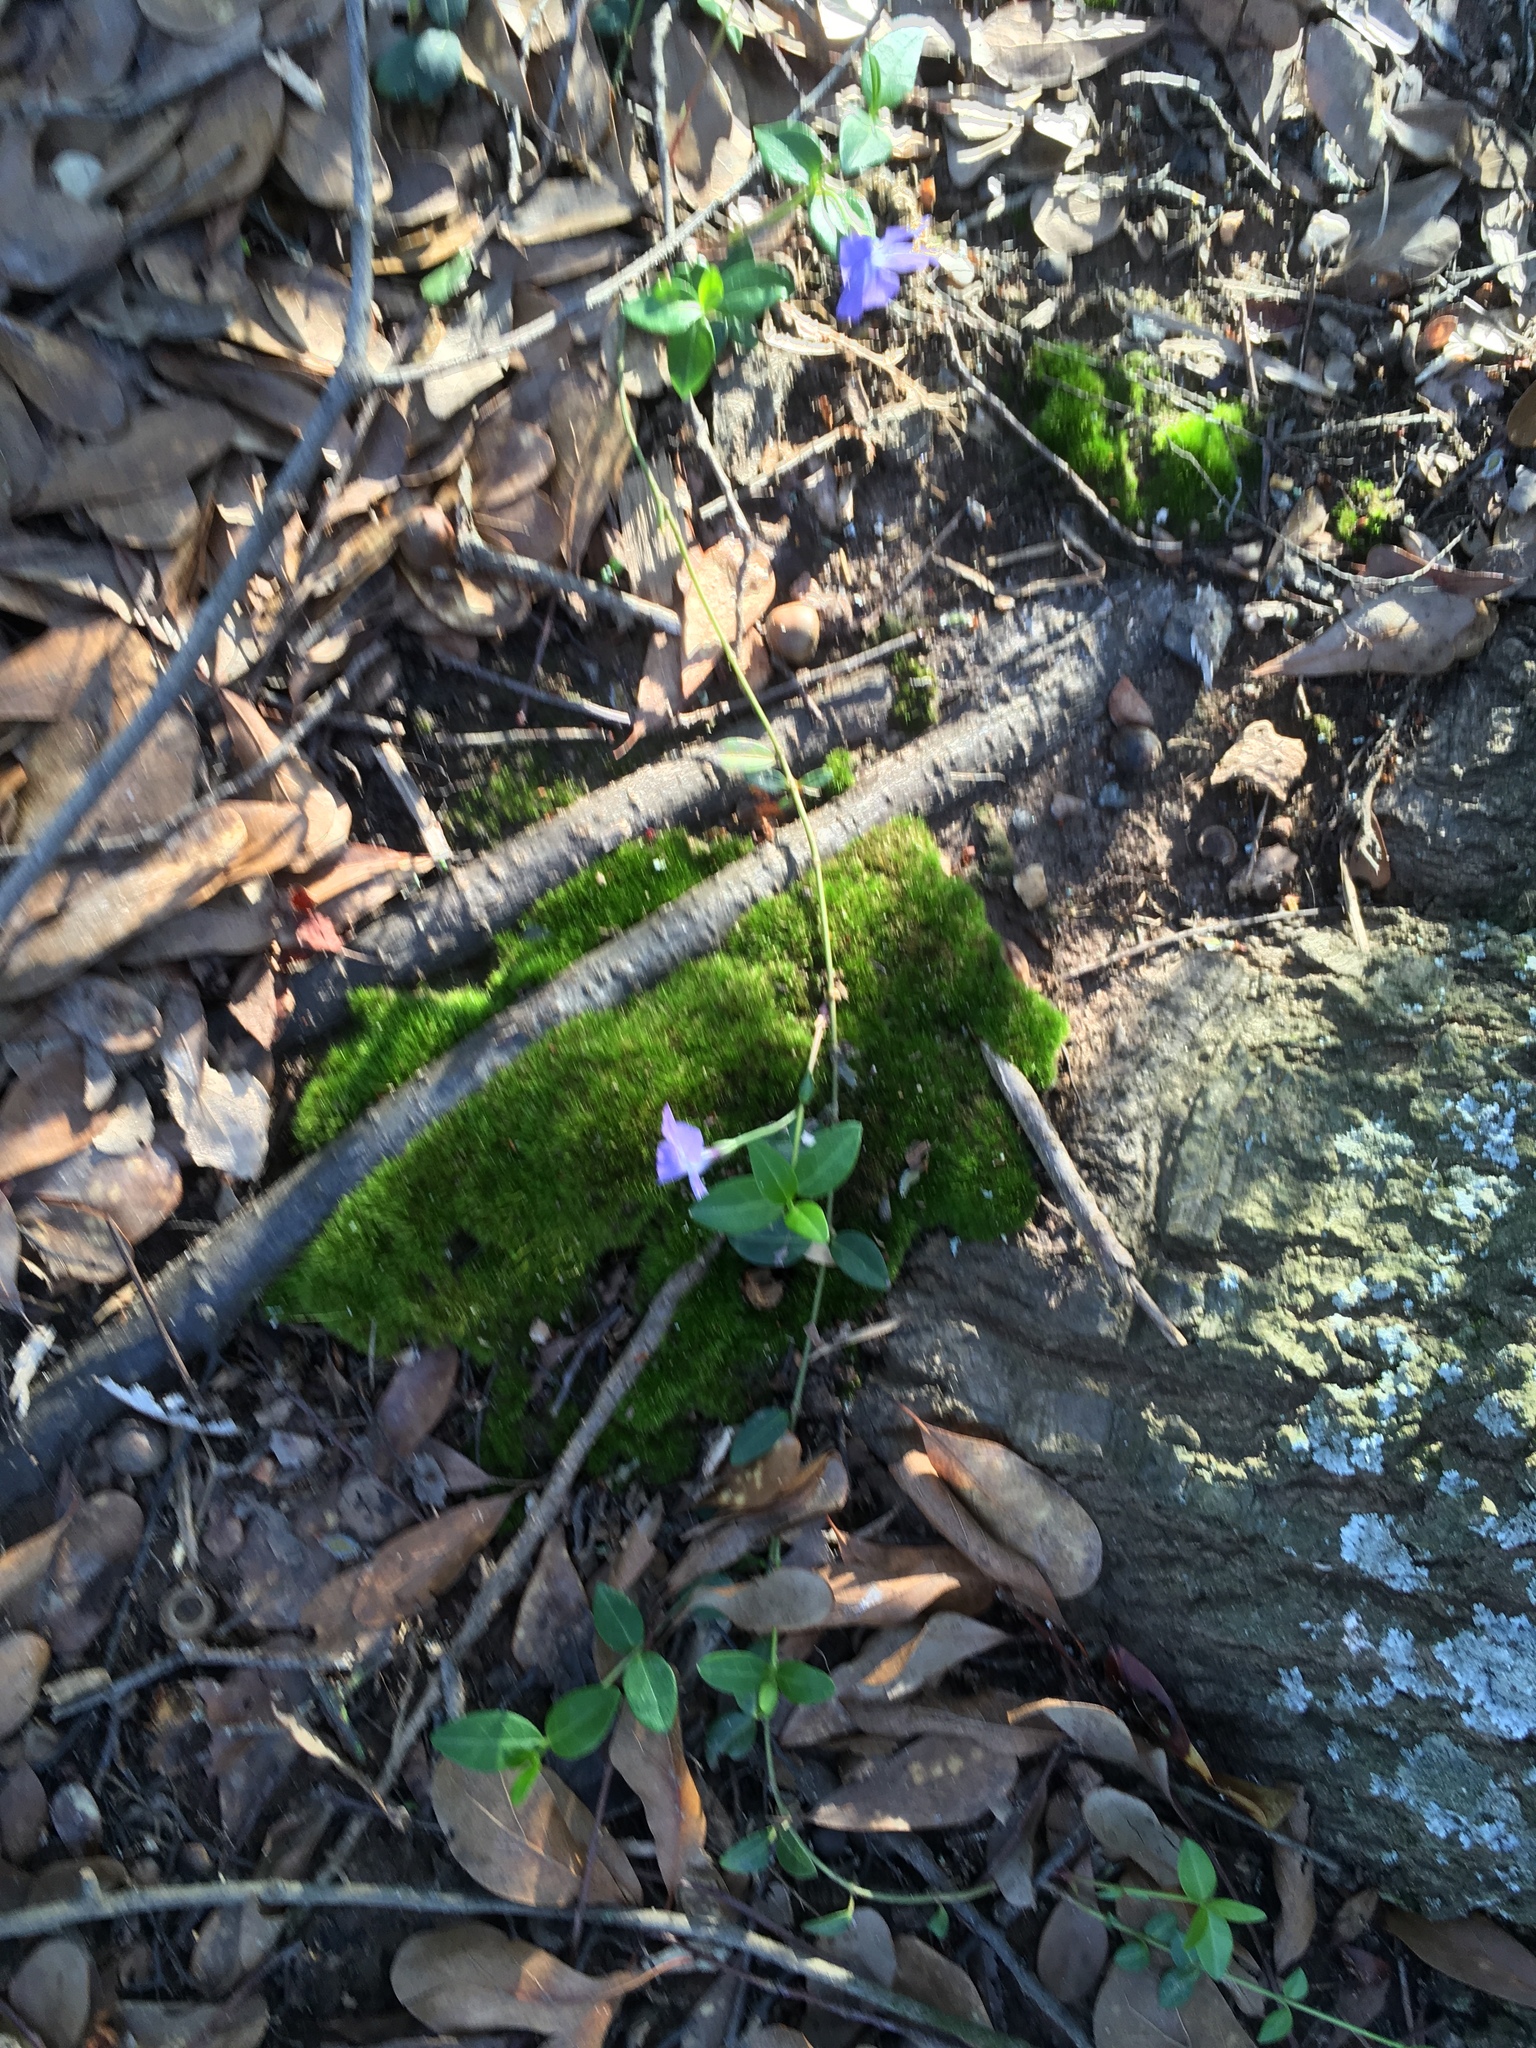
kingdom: Plantae
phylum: Tracheophyta
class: Magnoliopsida
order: Gentianales
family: Apocynaceae
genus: Vinca
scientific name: Vinca minor
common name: Lesser periwinkle
